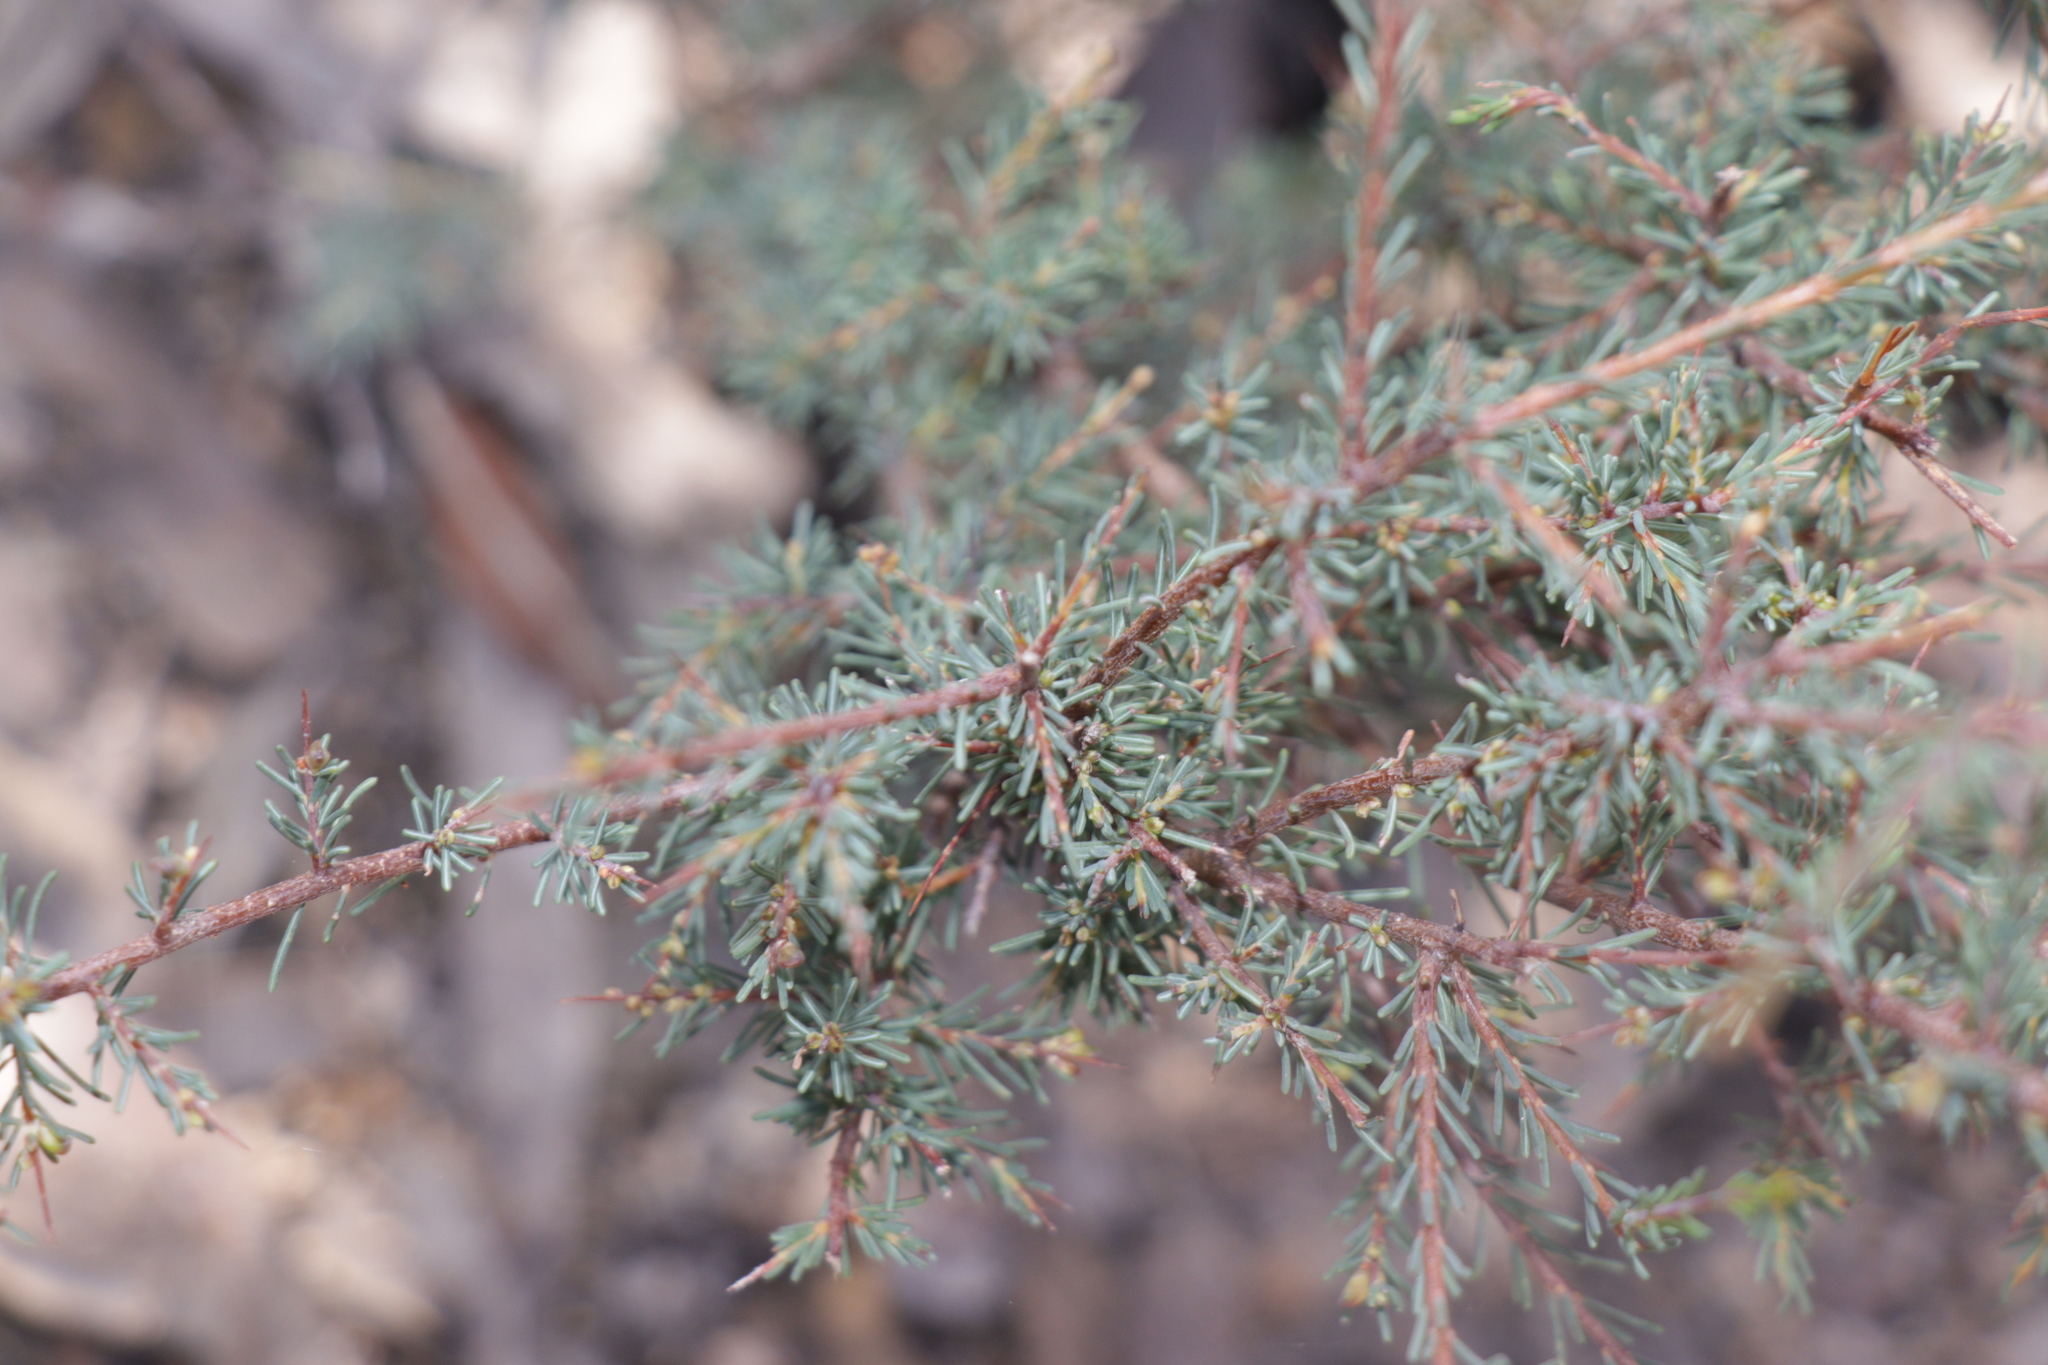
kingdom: Plantae
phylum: Tracheophyta
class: Magnoliopsida
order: Fabales
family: Fabaceae
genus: Dillwynia
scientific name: Dillwynia ramosissima
